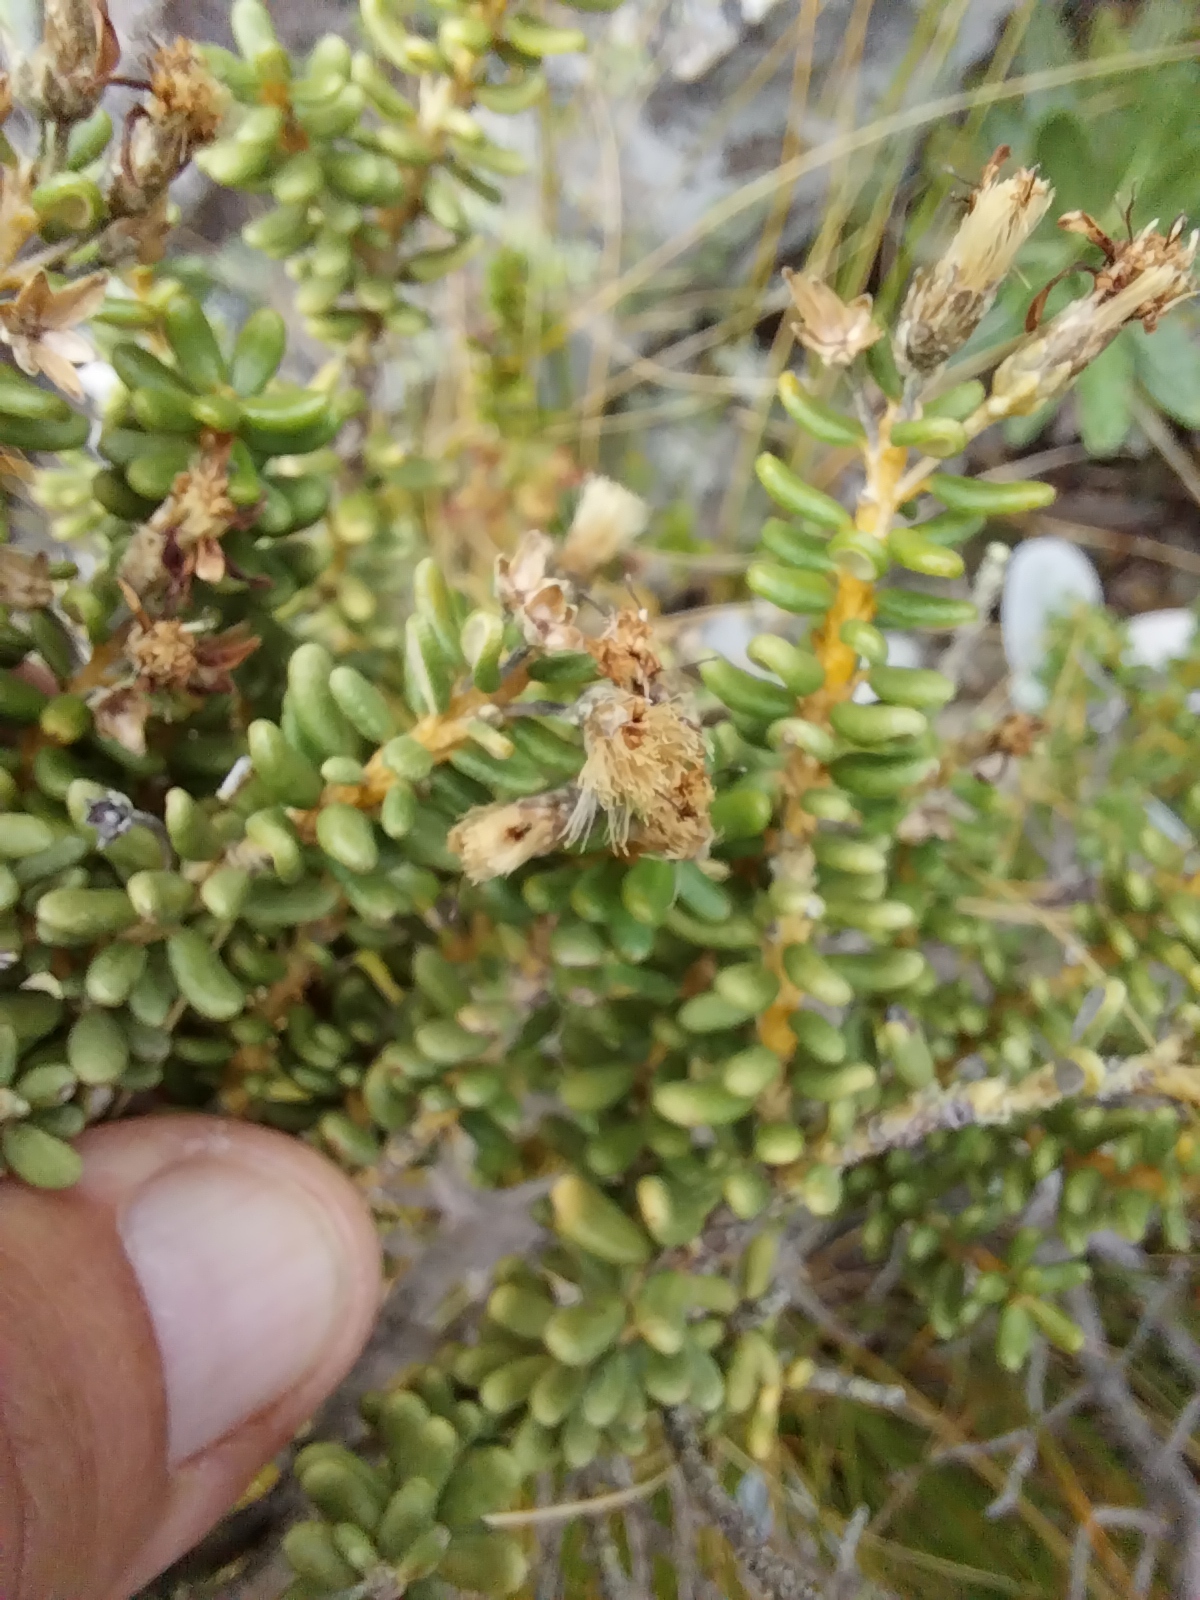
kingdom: Plantae
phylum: Tracheophyta
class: Magnoliopsida
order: Asterales
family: Asteraceae
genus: Olearia
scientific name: Olearia cymbifolia
